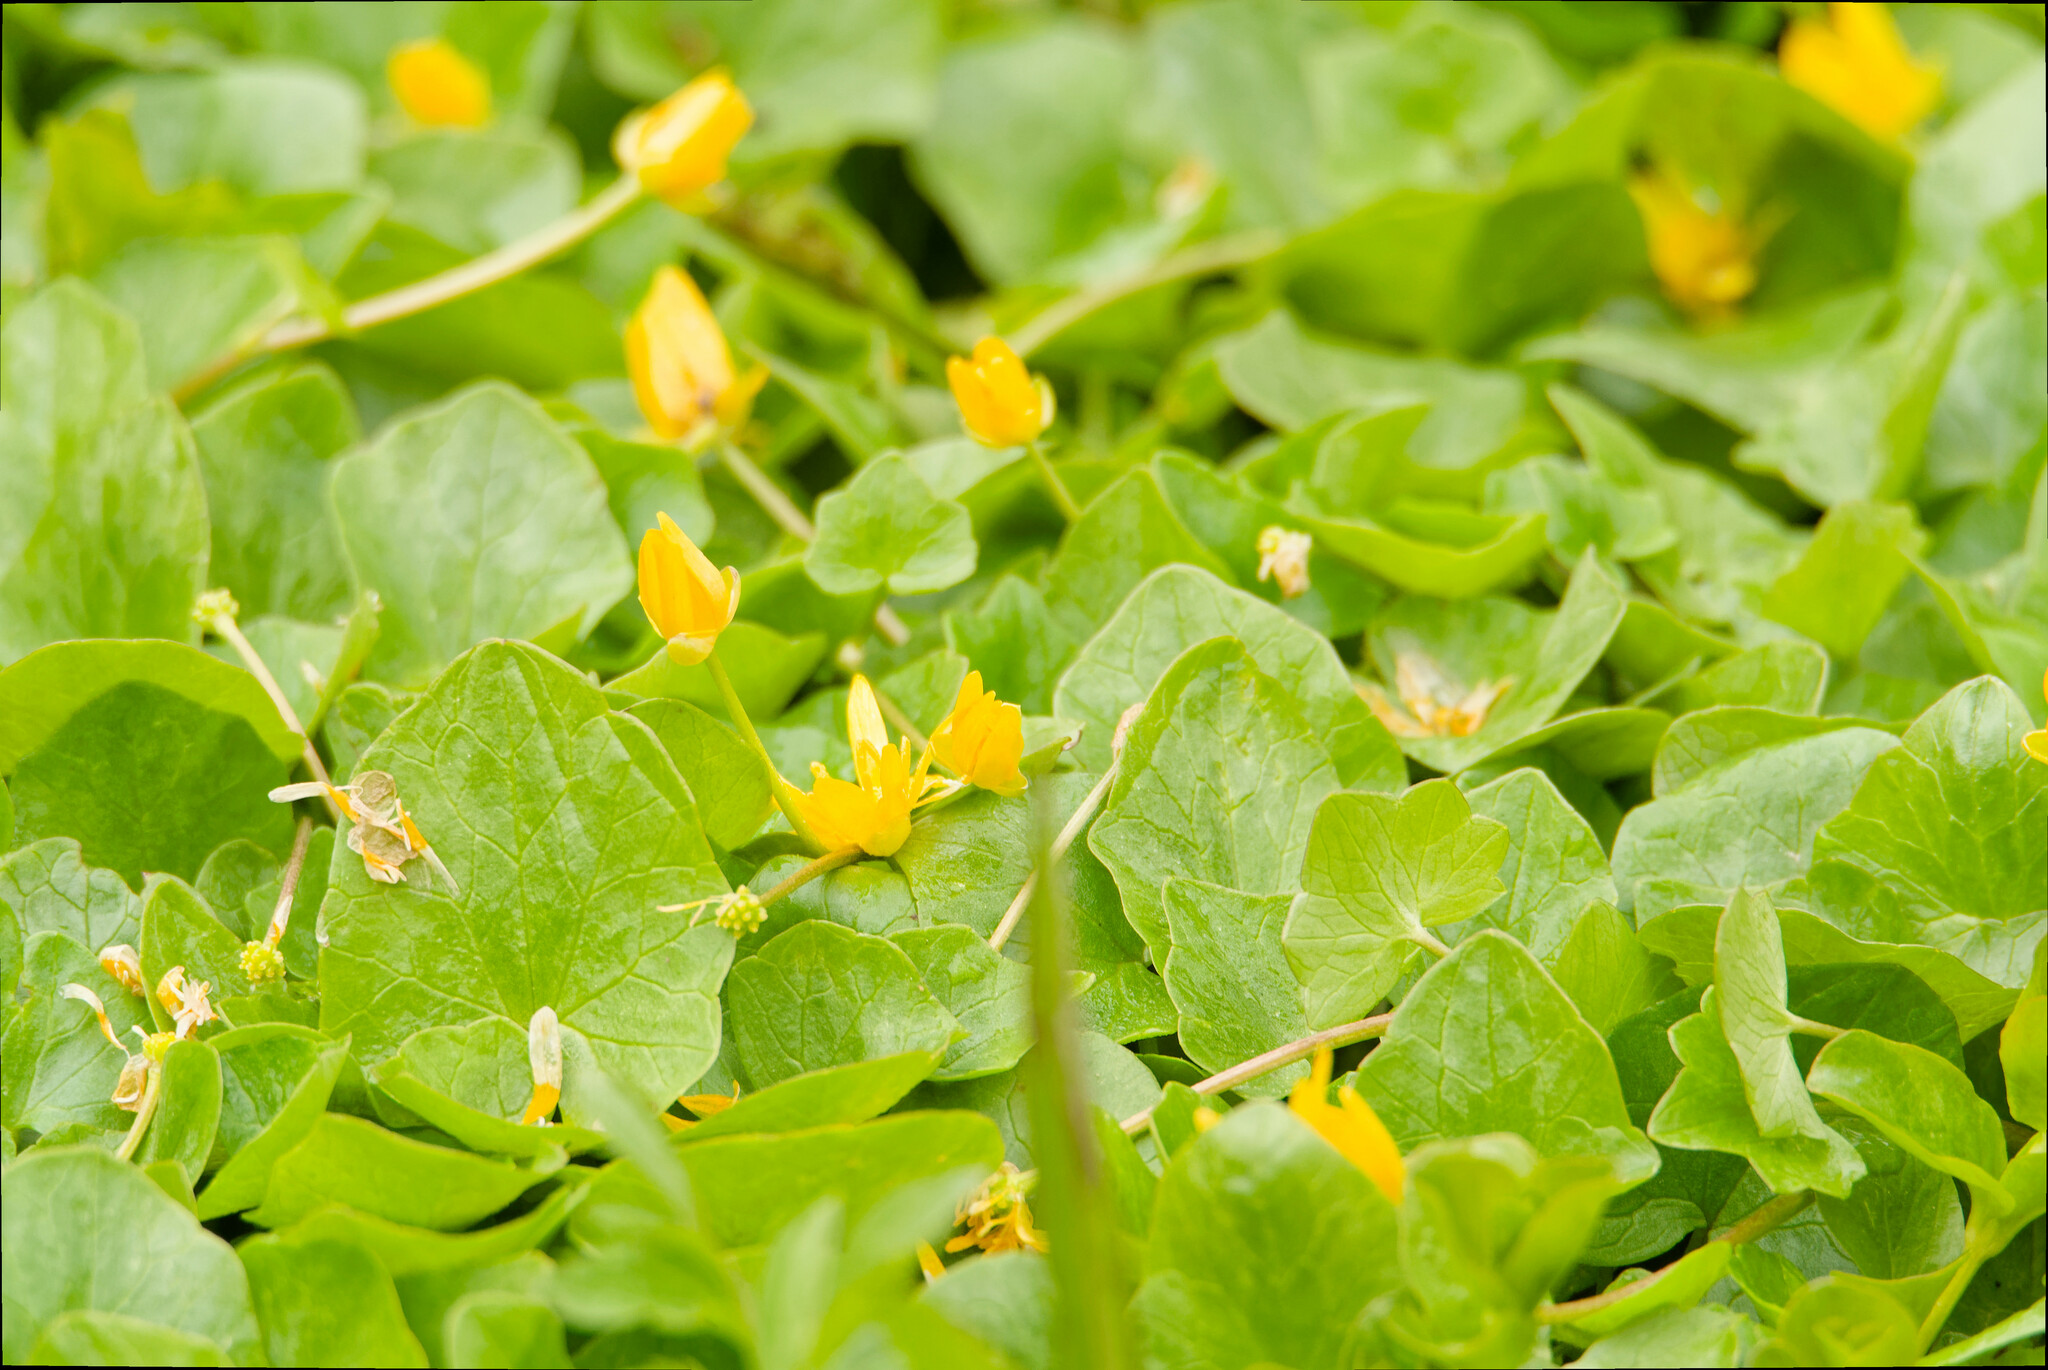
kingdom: Plantae
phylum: Tracheophyta
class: Magnoliopsida
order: Ranunculales
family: Ranunculaceae
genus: Ficaria
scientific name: Ficaria verna
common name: Lesser celandine
